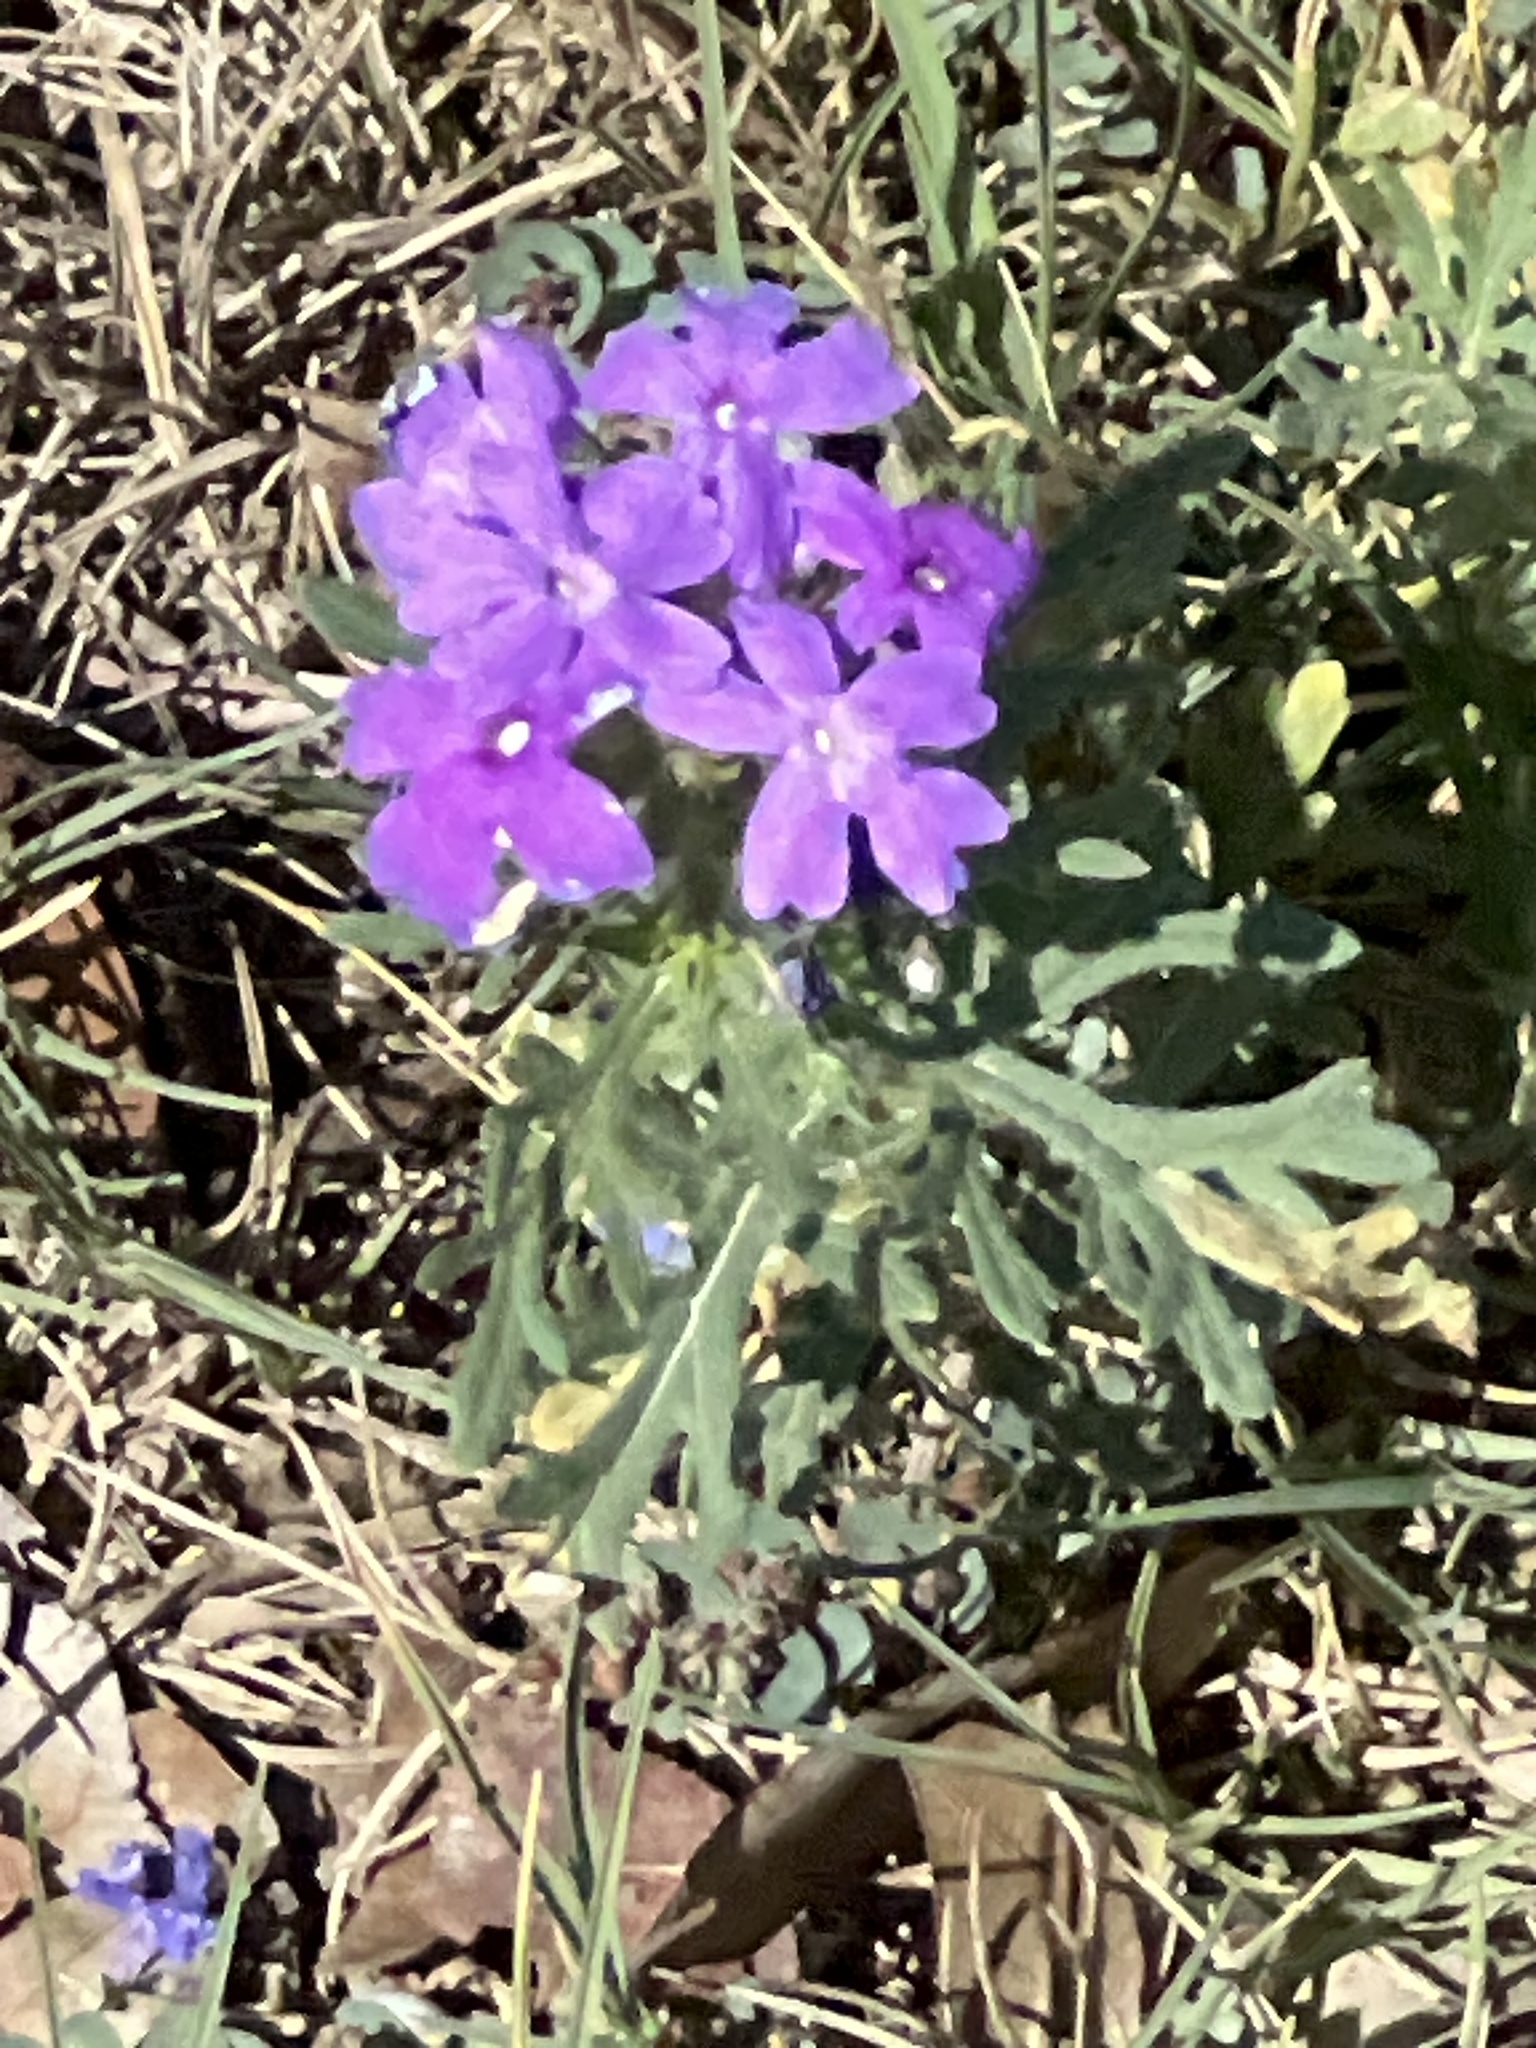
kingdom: Plantae
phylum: Tracheophyta
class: Magnoliopsida
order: Lamiales
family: Verbenaceae
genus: Verbena
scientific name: Verbena bipinnatifida
